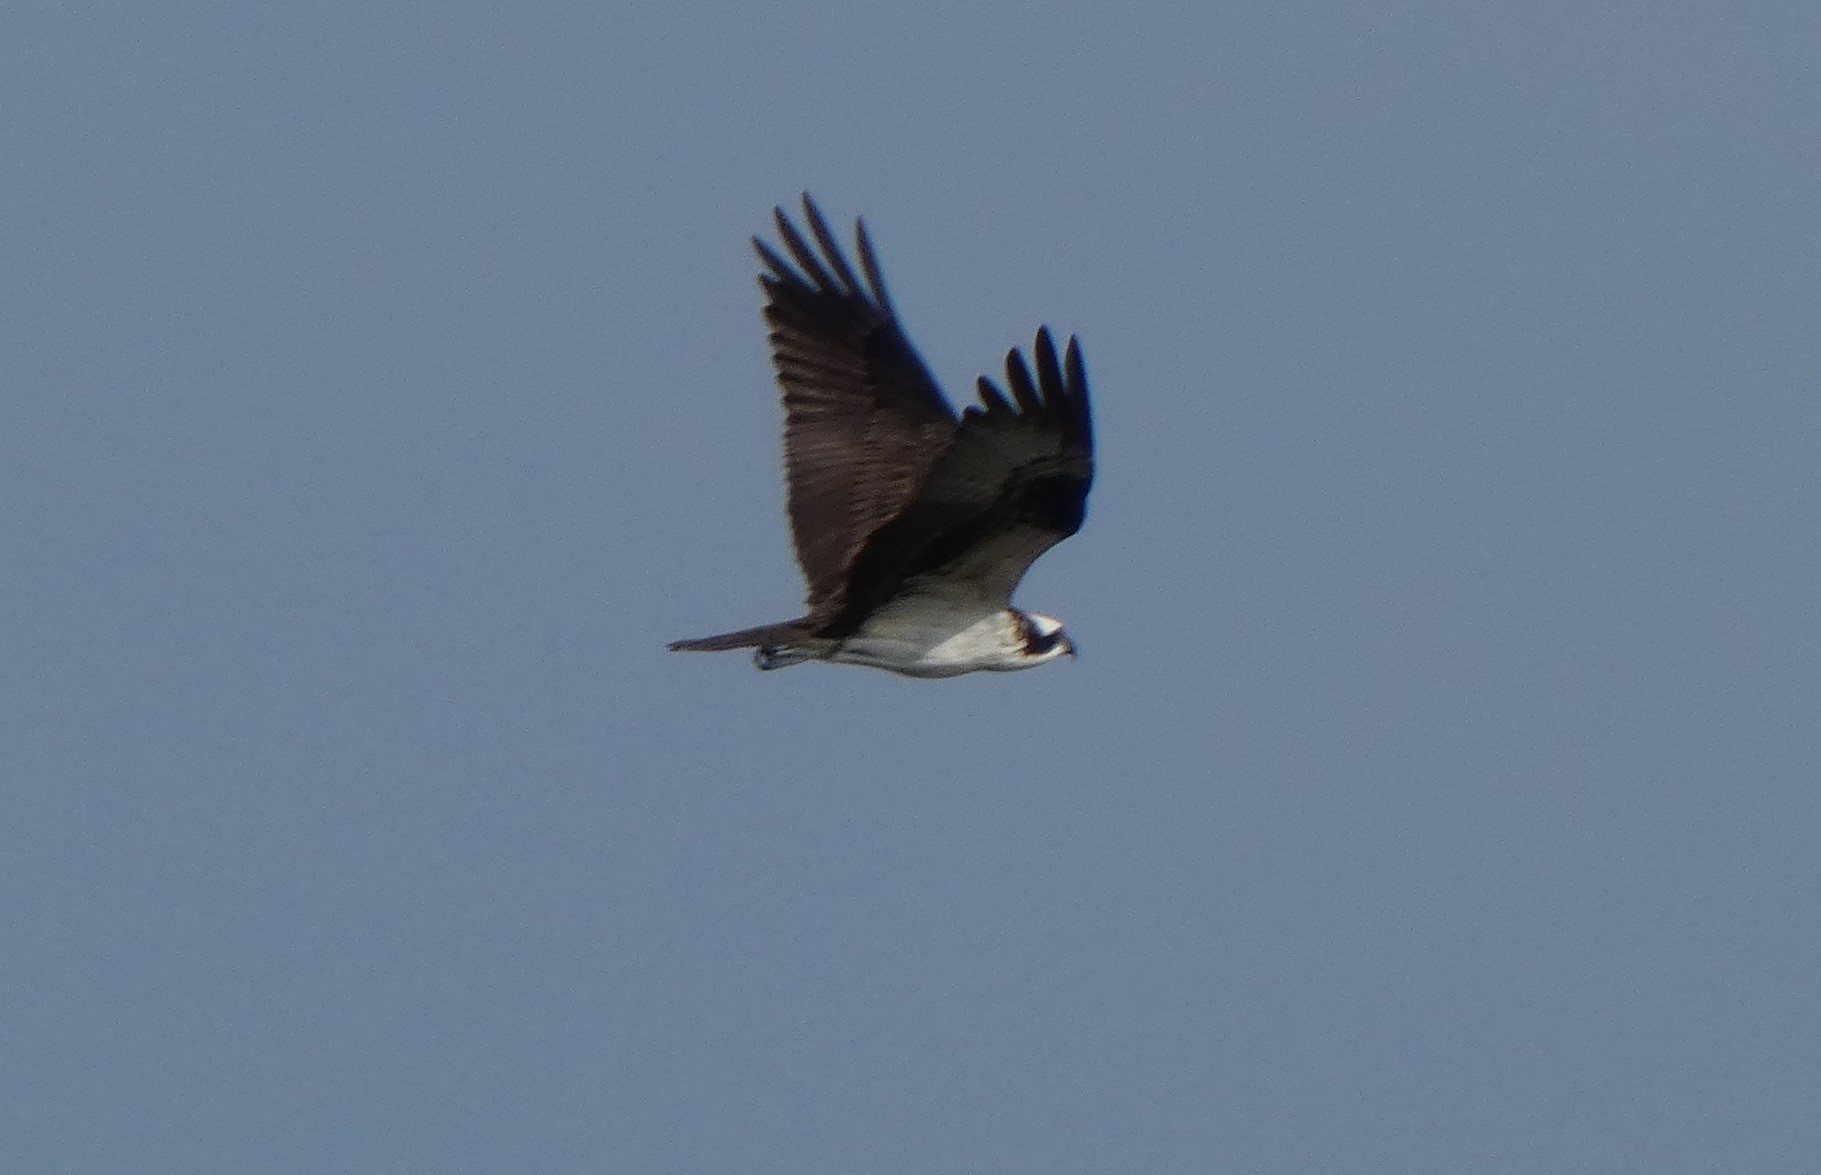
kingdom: Animalia
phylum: Chordata
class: Aves
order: Accipitriformes
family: Pandionidae
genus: Pandion
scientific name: Pandion haliaetus
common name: Osprey
